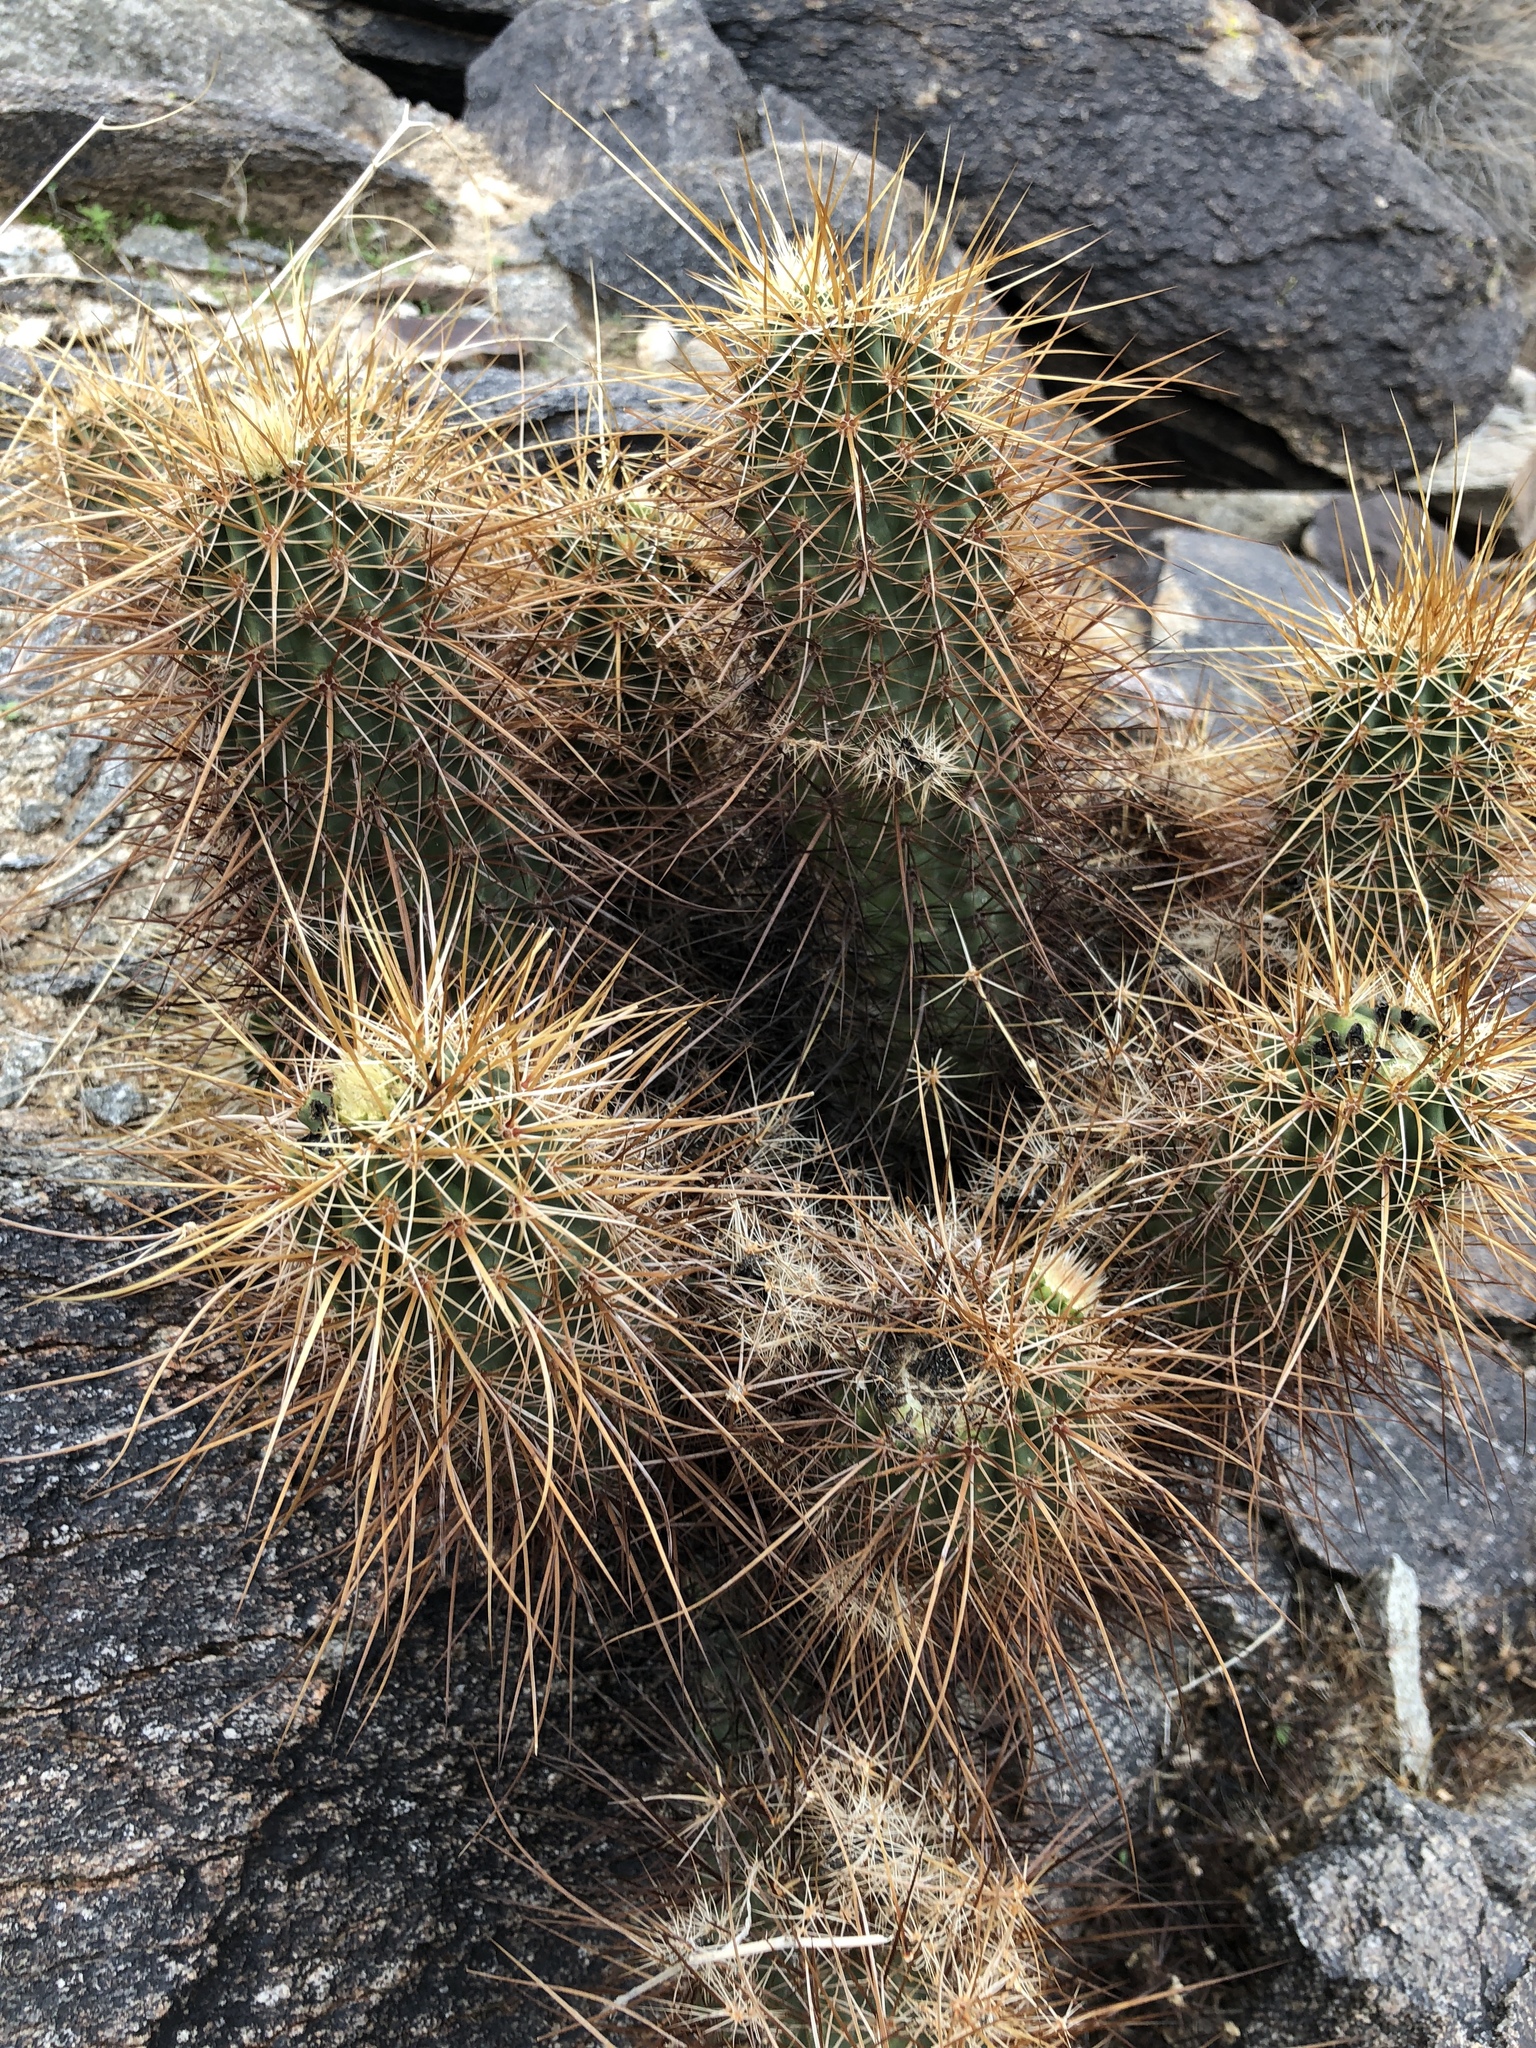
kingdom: Plantae
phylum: Tracheophyta
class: Magnoliopsida
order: Caryophyllales
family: Cactaceae
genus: Echinocereus
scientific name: Echinocereus engelmannii
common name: Engelmann's hedgehog cactus
